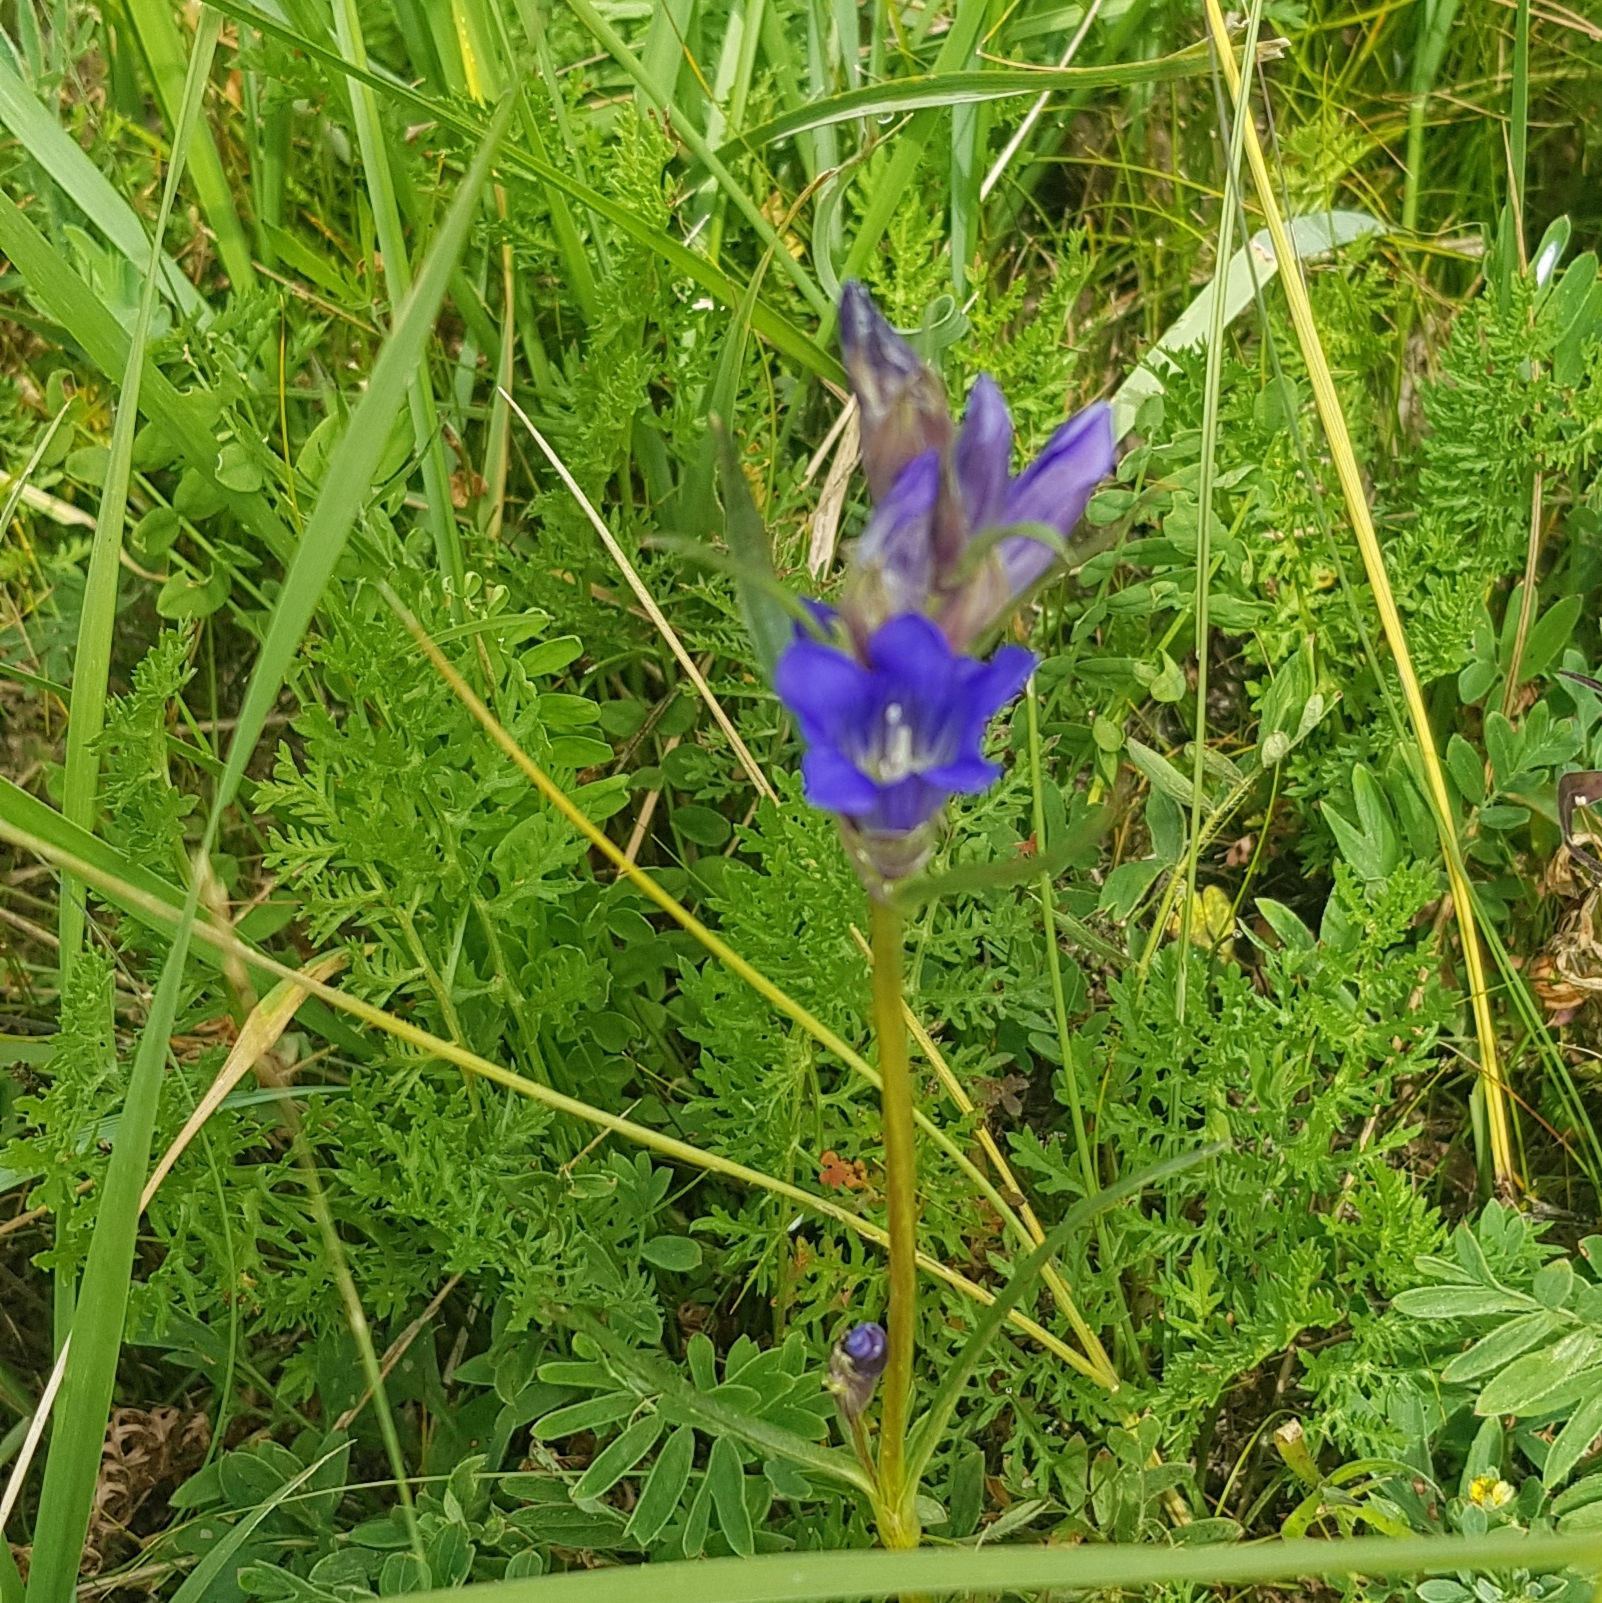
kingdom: Plantae
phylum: Tracheophyta
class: Magnoliopsida
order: Gentianales
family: Gentianaceae
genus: Gentiana
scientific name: Gentiana decumbens
